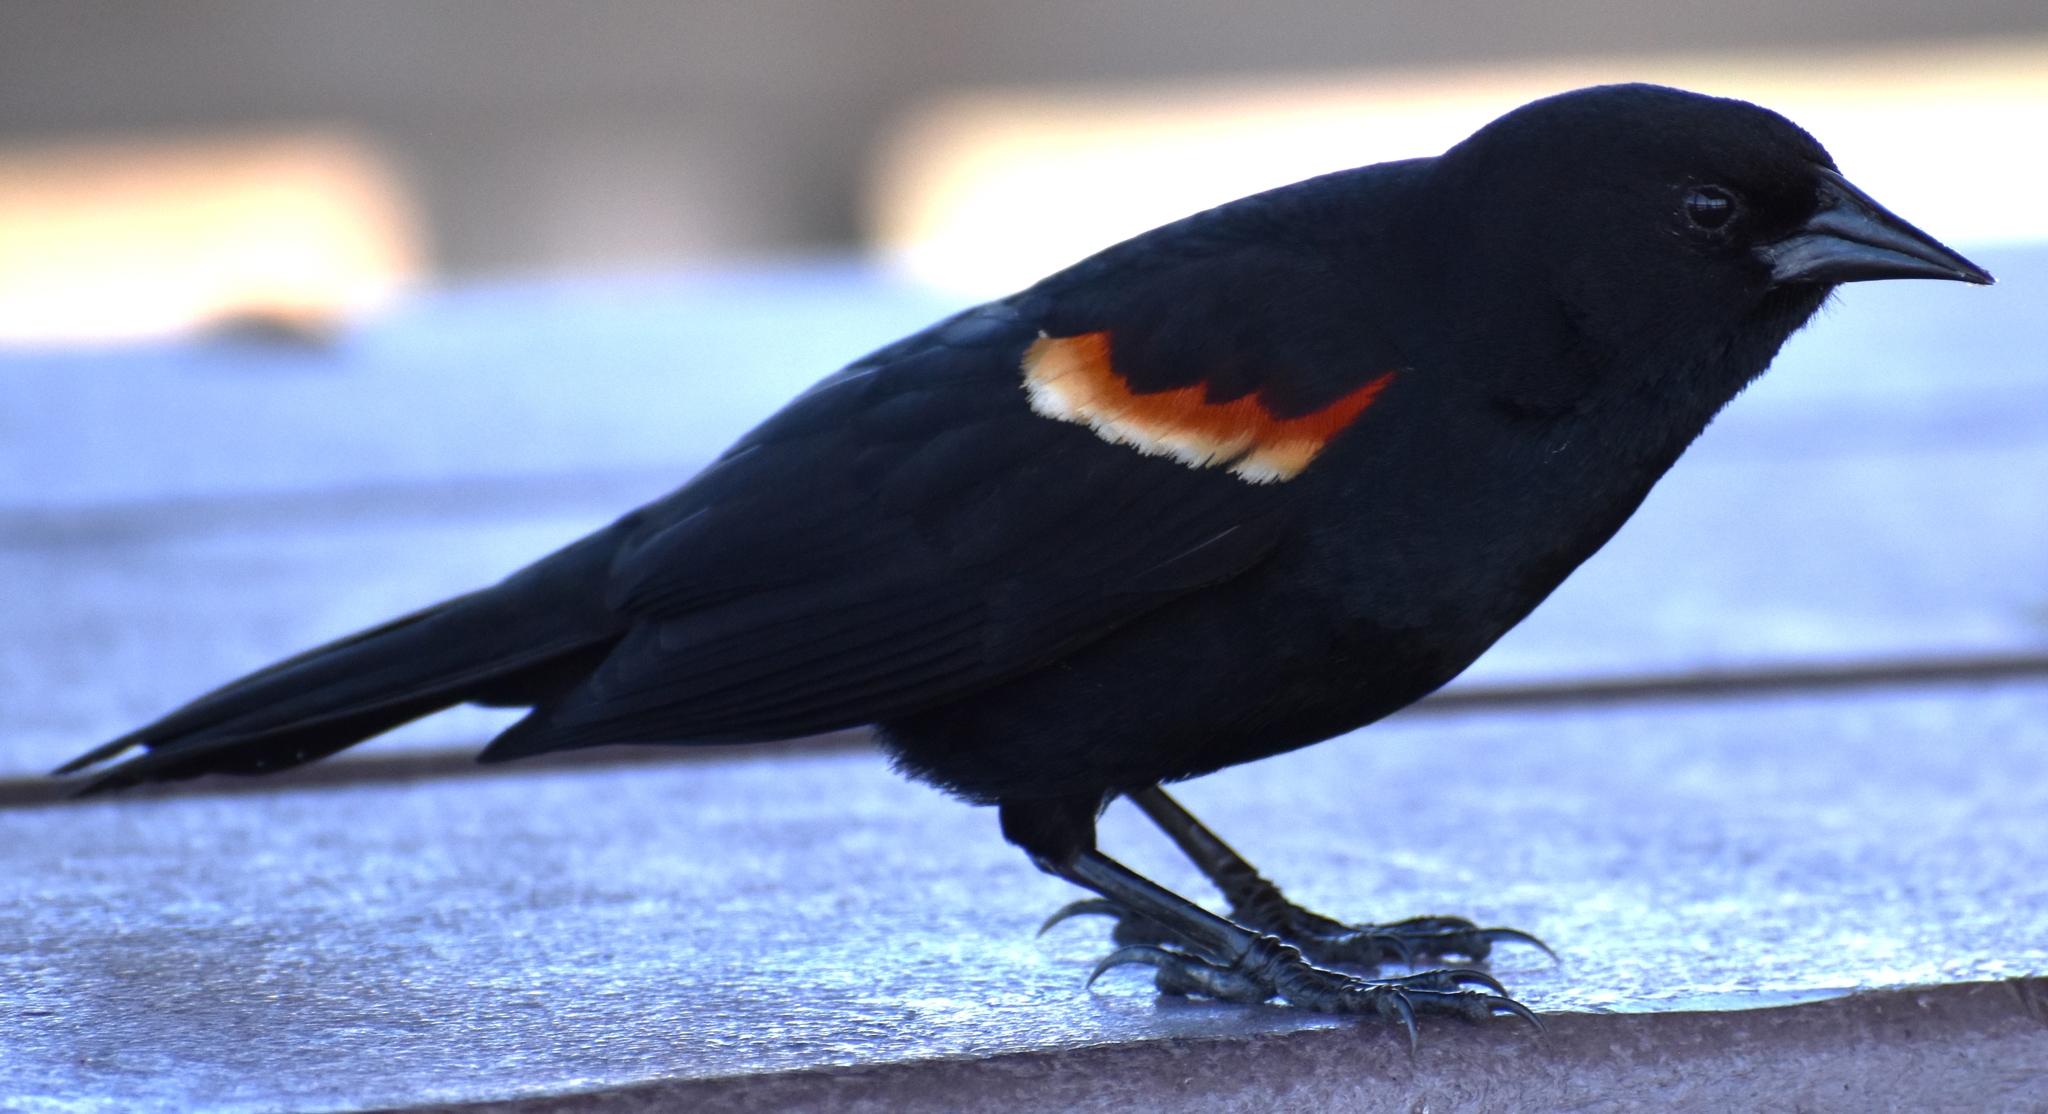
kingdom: Animalia
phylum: Chordata
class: Aves
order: Passeriformes
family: Icteridae
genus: Agelaius
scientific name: Agelaius phoeniceus
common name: Red-winged blackbird
